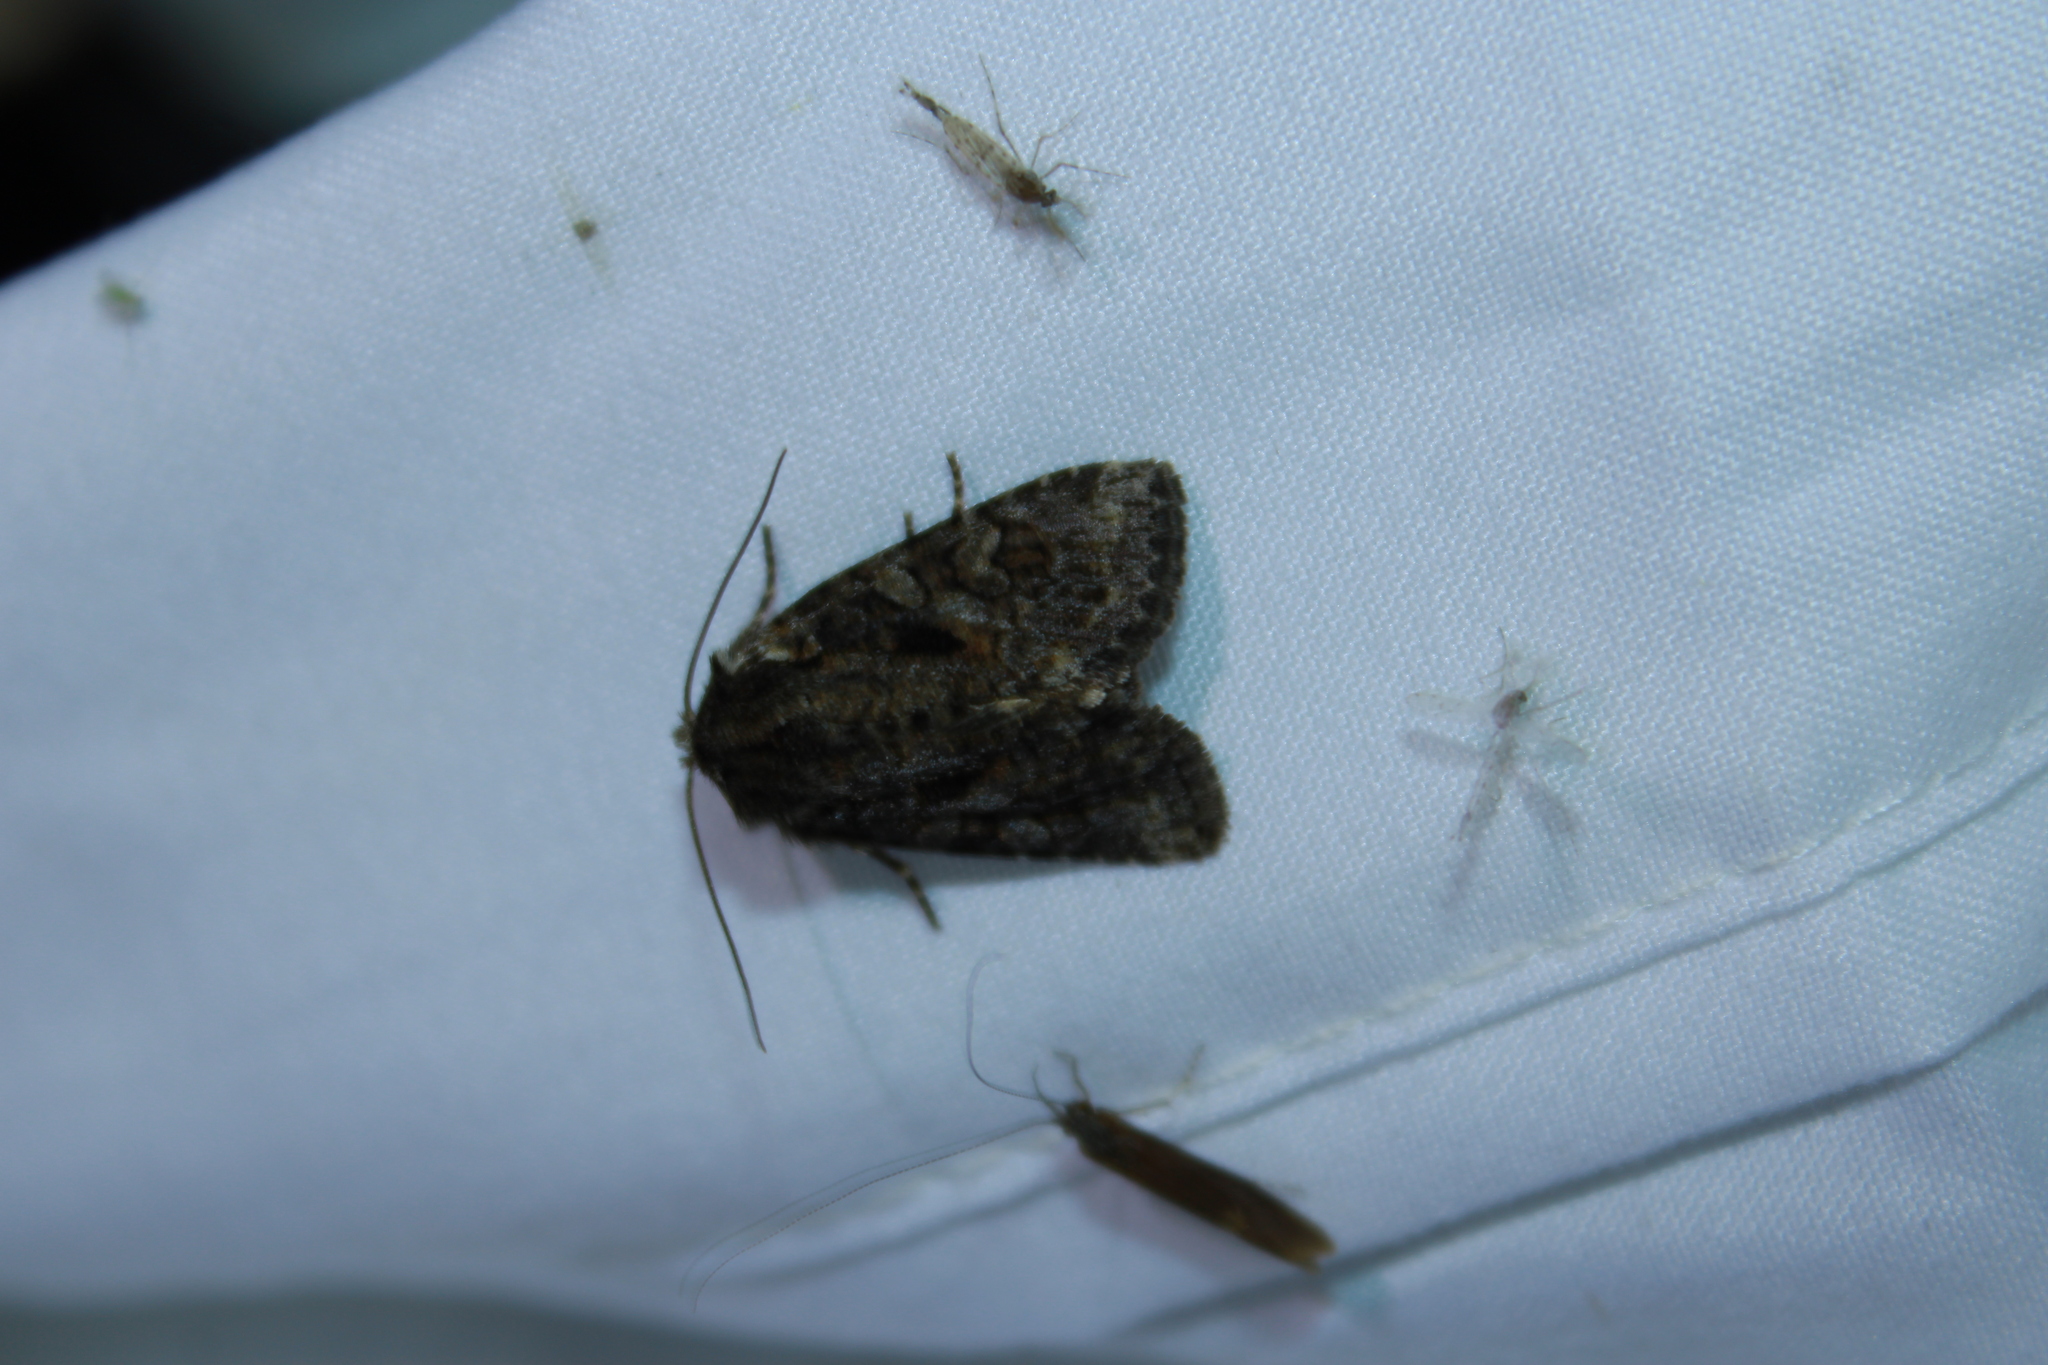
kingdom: Animalia
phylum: Arthropoda
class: Insecta
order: Lepidoptera
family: Noctuidae
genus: Orthodes
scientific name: Orthodes detracta
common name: Disparaged arches moth
